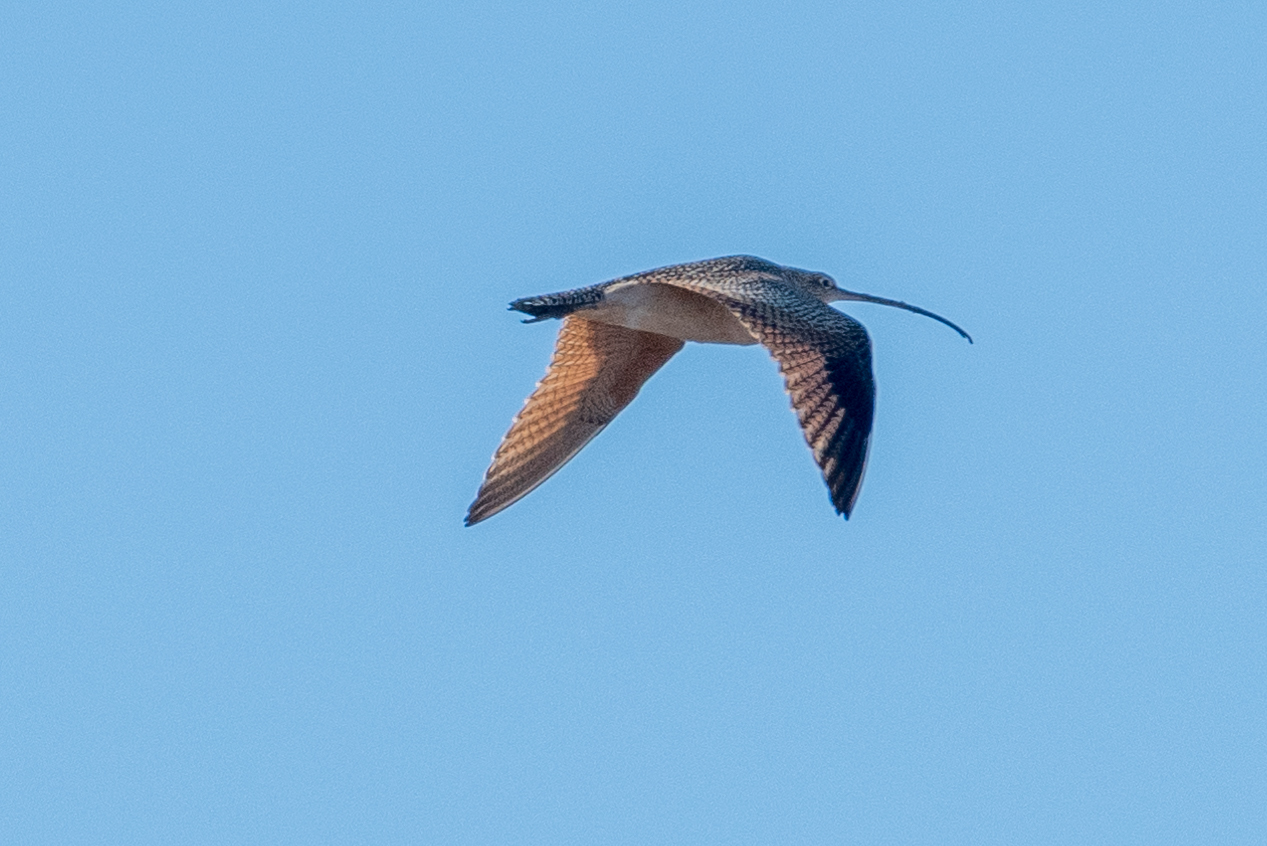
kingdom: Animalia
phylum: Chordata
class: Aves
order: Charadriiformes
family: Scolopacidae
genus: Numenius
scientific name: Numenius americanus
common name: Long-billed curlew
